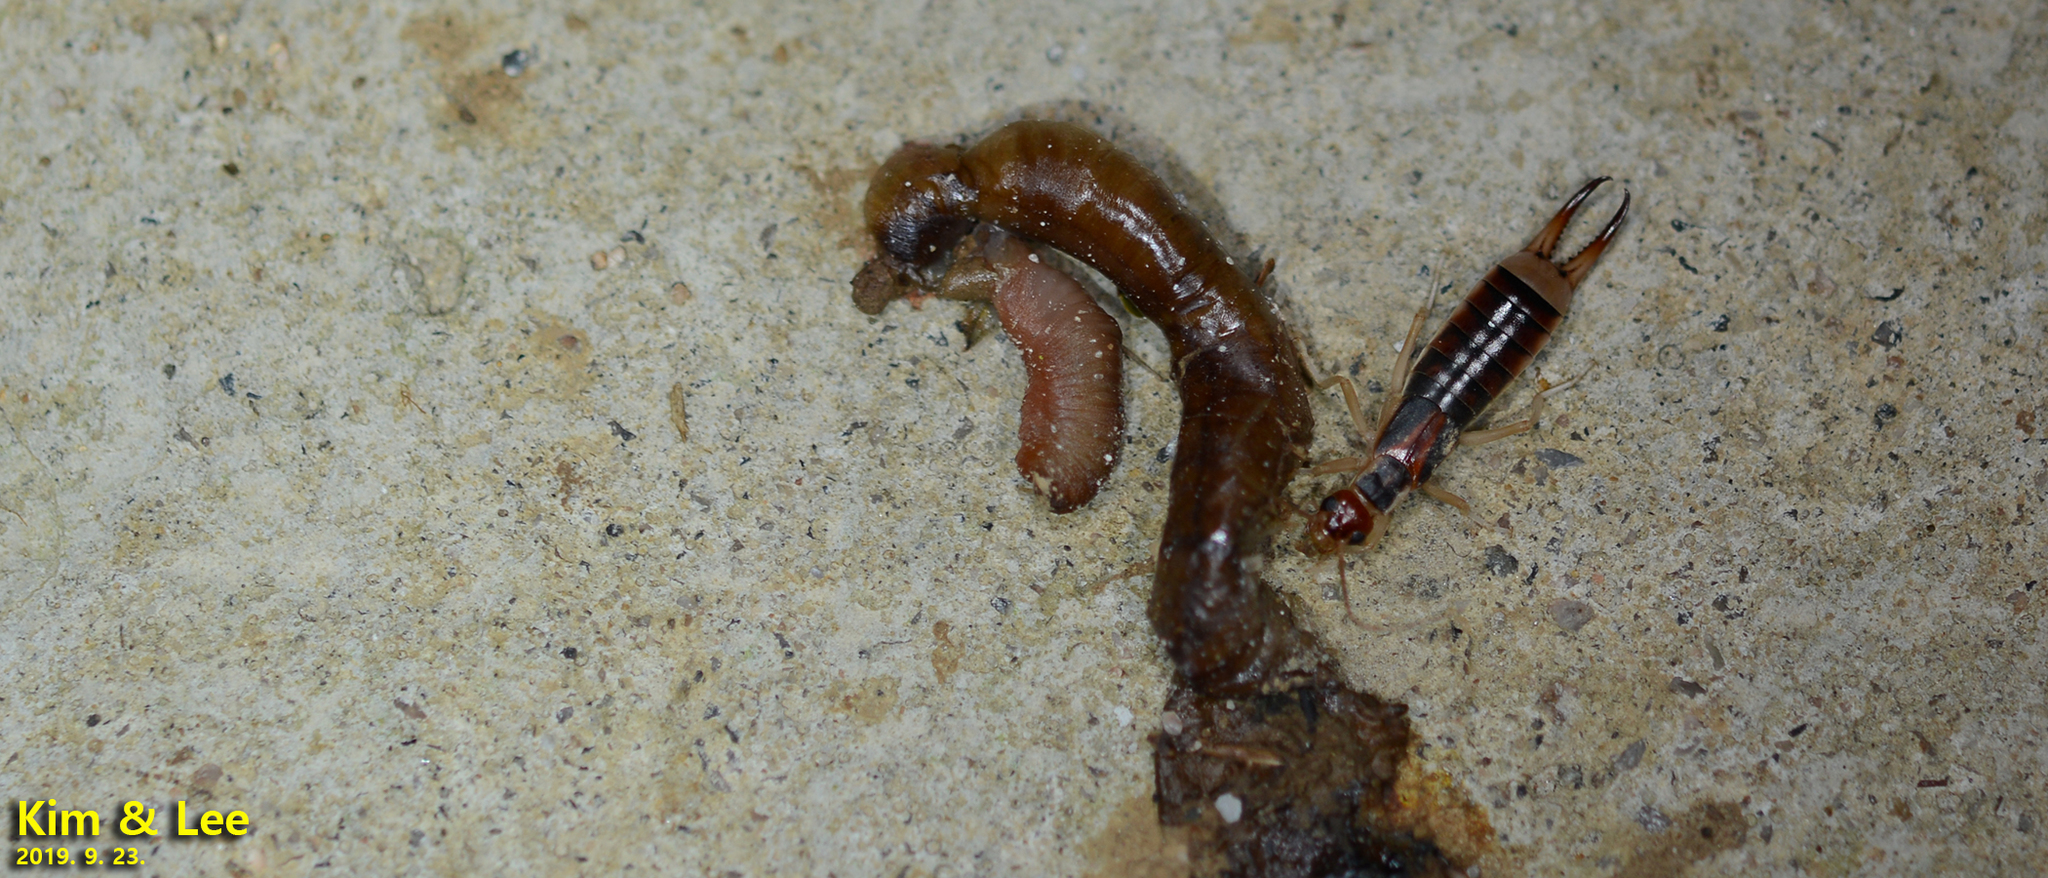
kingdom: Animalia
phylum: Arthropoda
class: Insecta
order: Dermaptera
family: Labiduridae
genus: Labidura
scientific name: Labidura riparia
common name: Striped earwig
